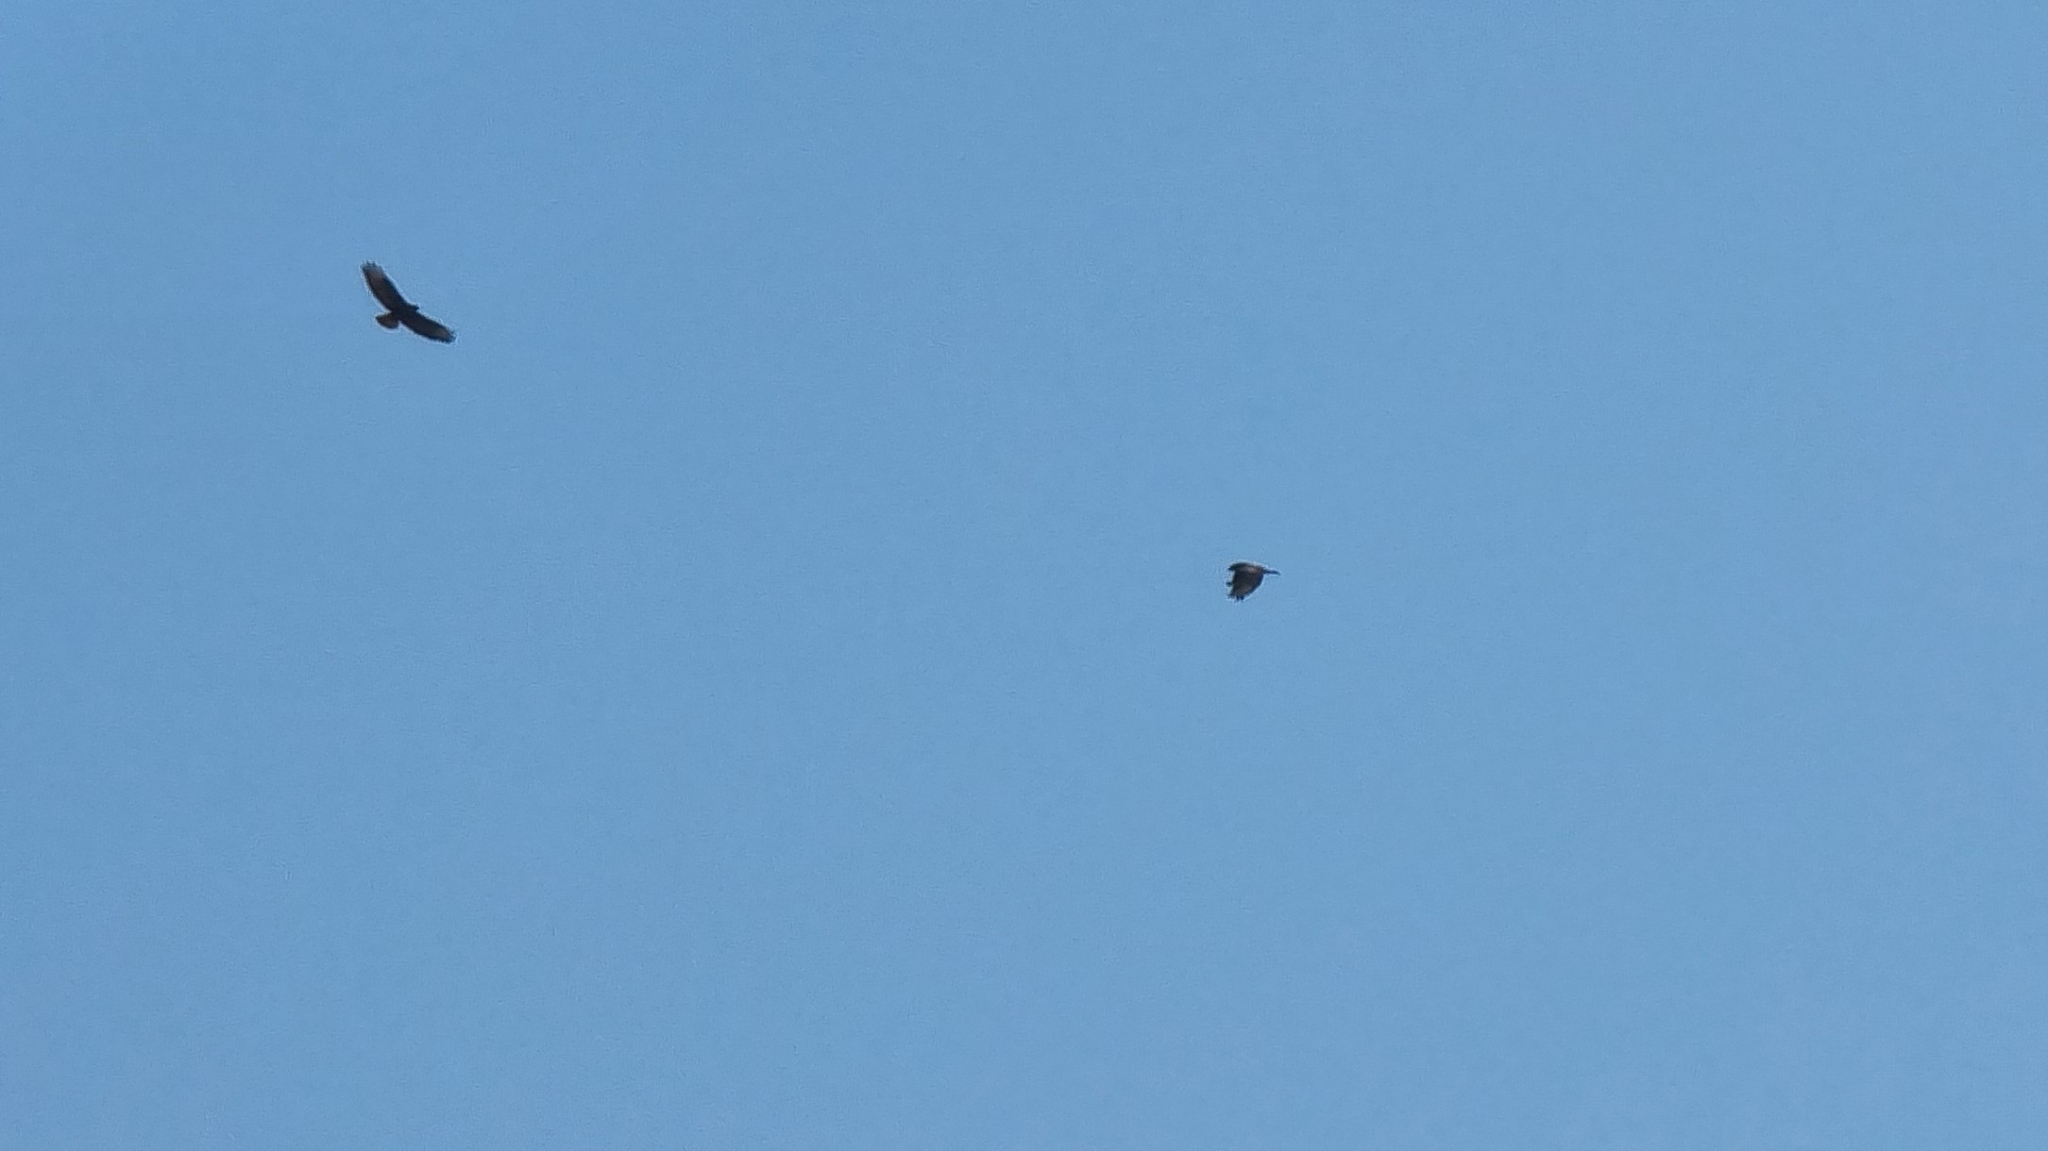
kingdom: Animalia
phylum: Chordata
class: Aves
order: Accipitriformes
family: Accipitridae
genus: Buteo
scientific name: Buteo buteo
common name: Common buzzard
